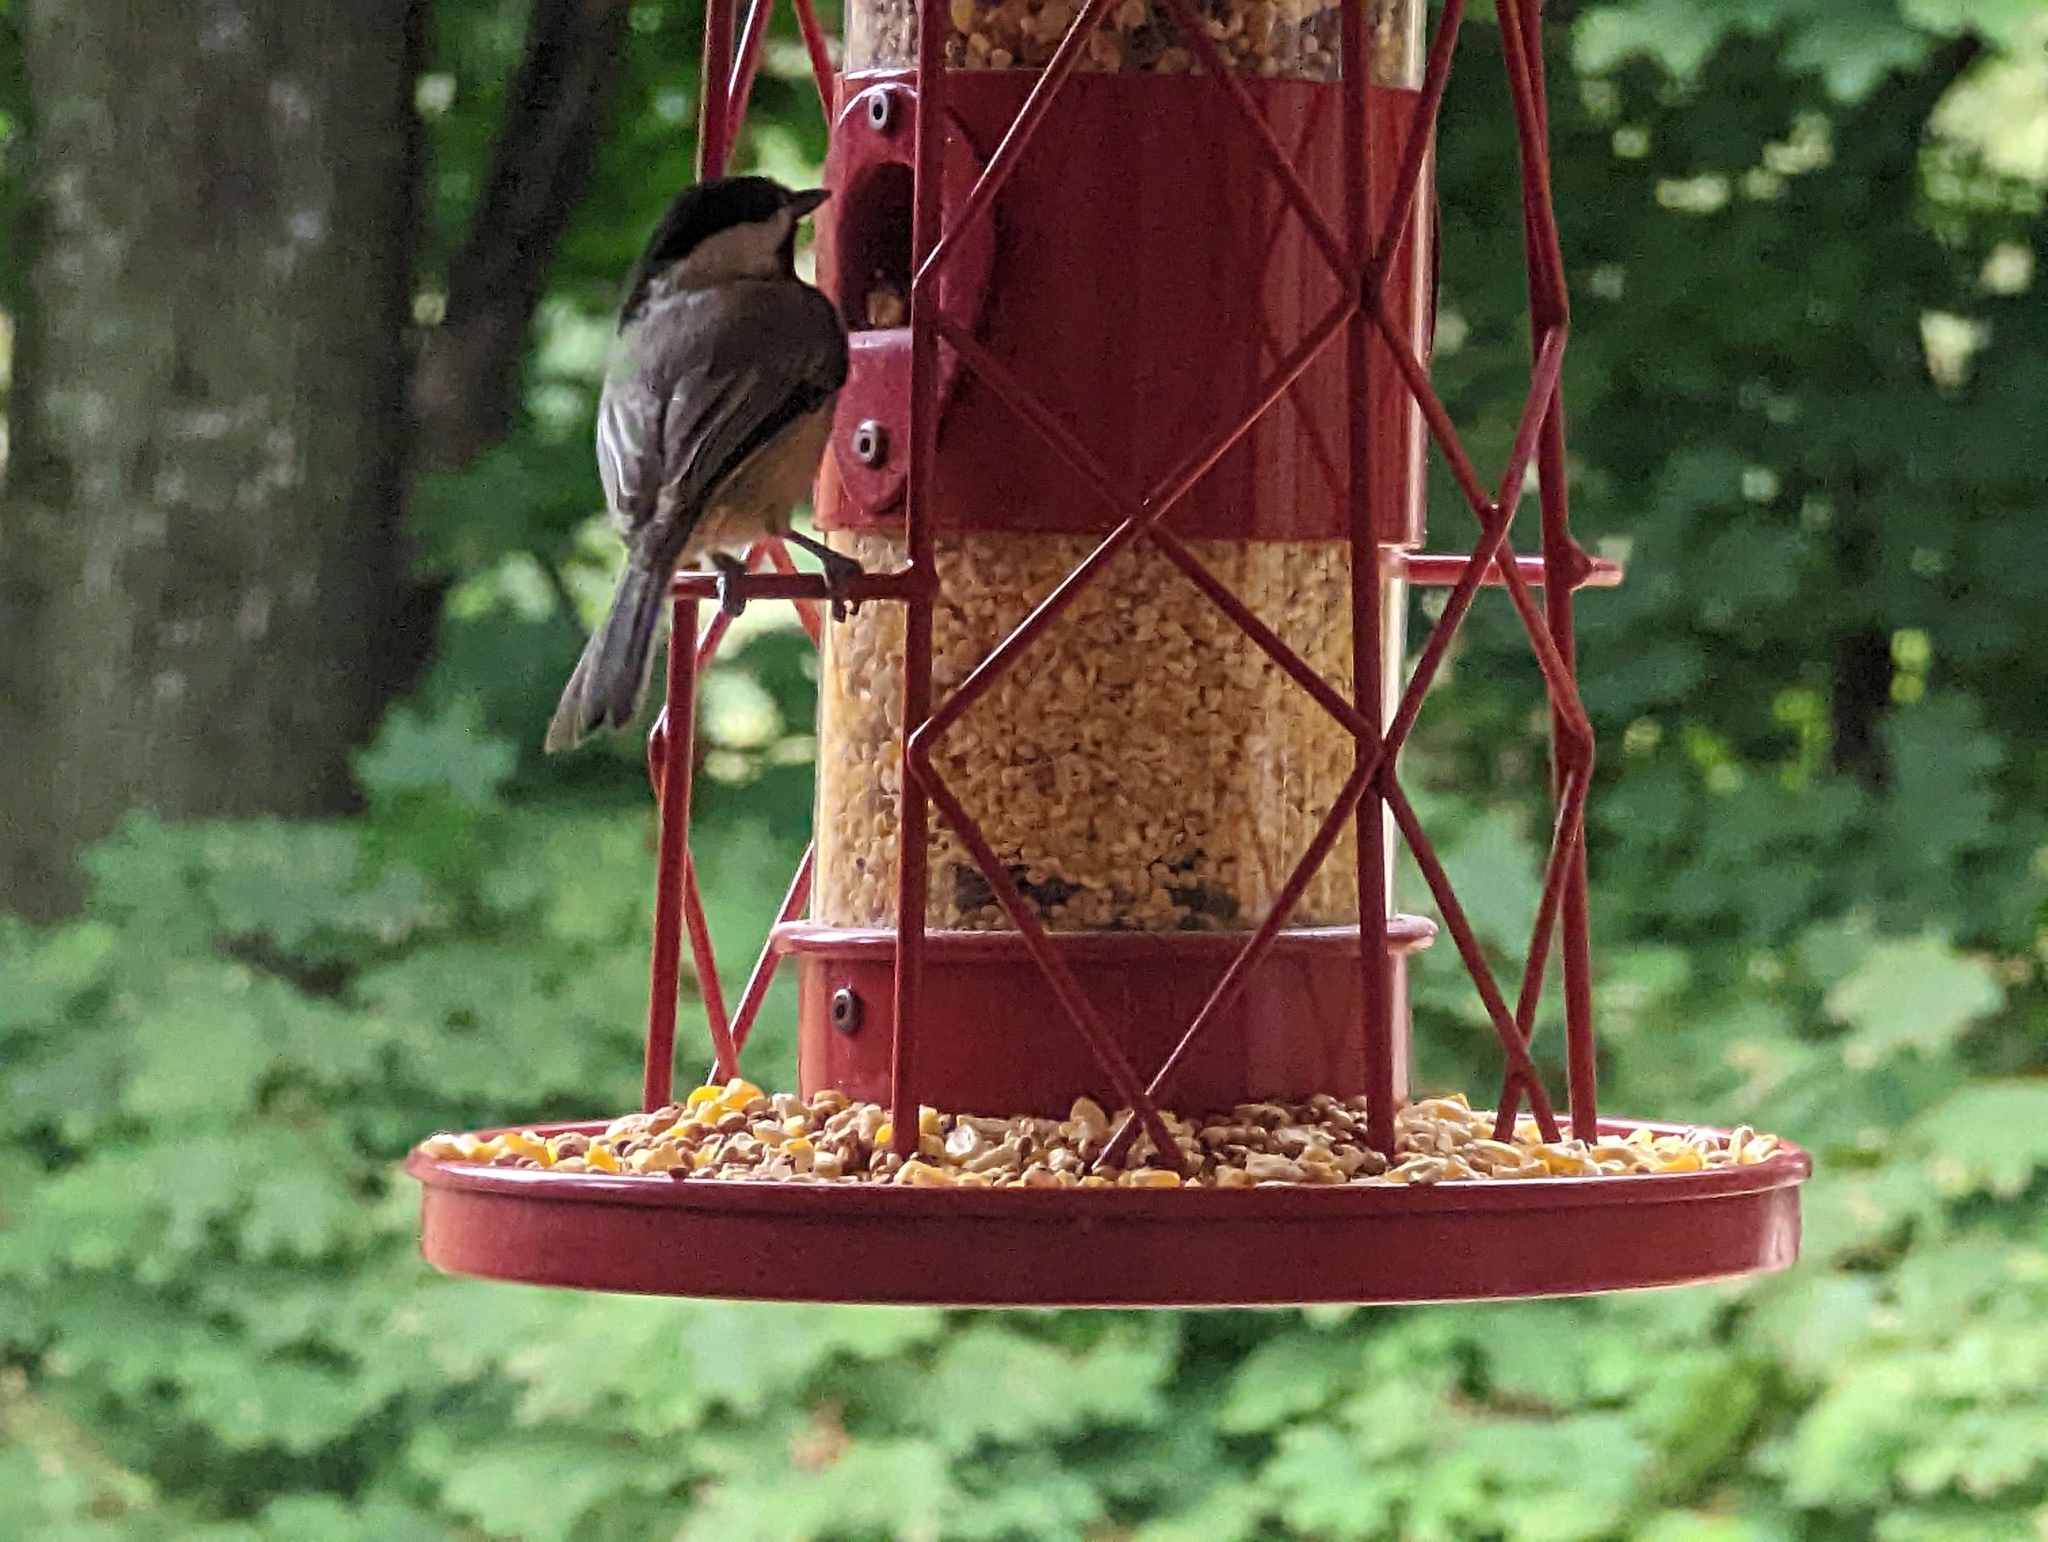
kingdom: Animalia
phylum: Chordata
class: Aves
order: Passeriformes
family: Paridae
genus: Poecile
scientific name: Poecile carolinensis
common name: Carolina chickadee
